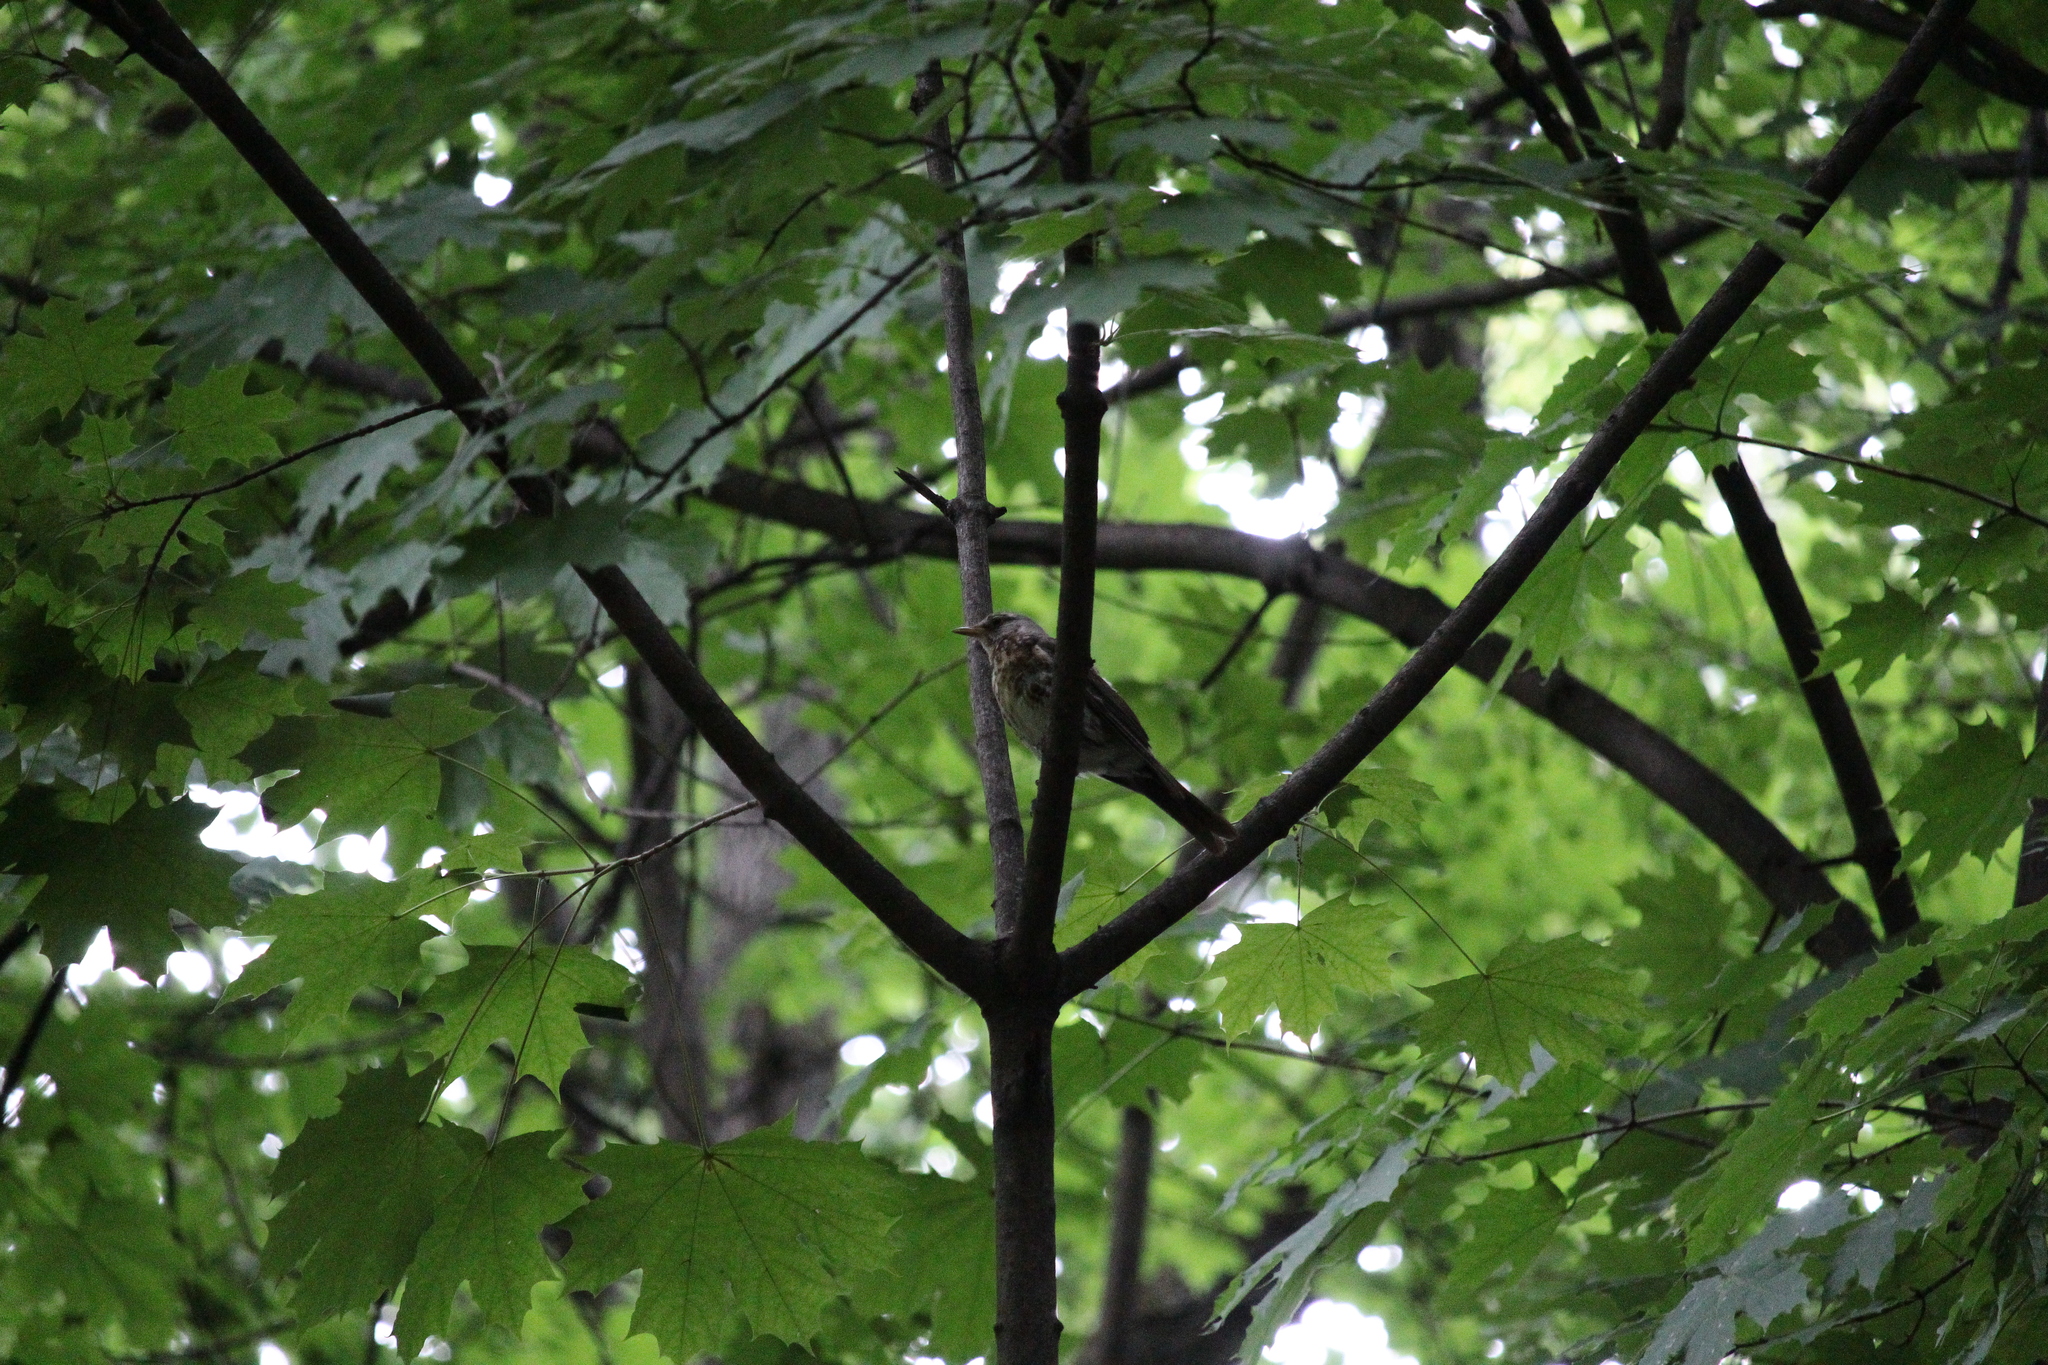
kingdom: Animalia
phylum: Chordata
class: Aves
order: Passeriformes
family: Turdidae
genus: Turdus
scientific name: Turdus pilaris
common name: Fieldfare
